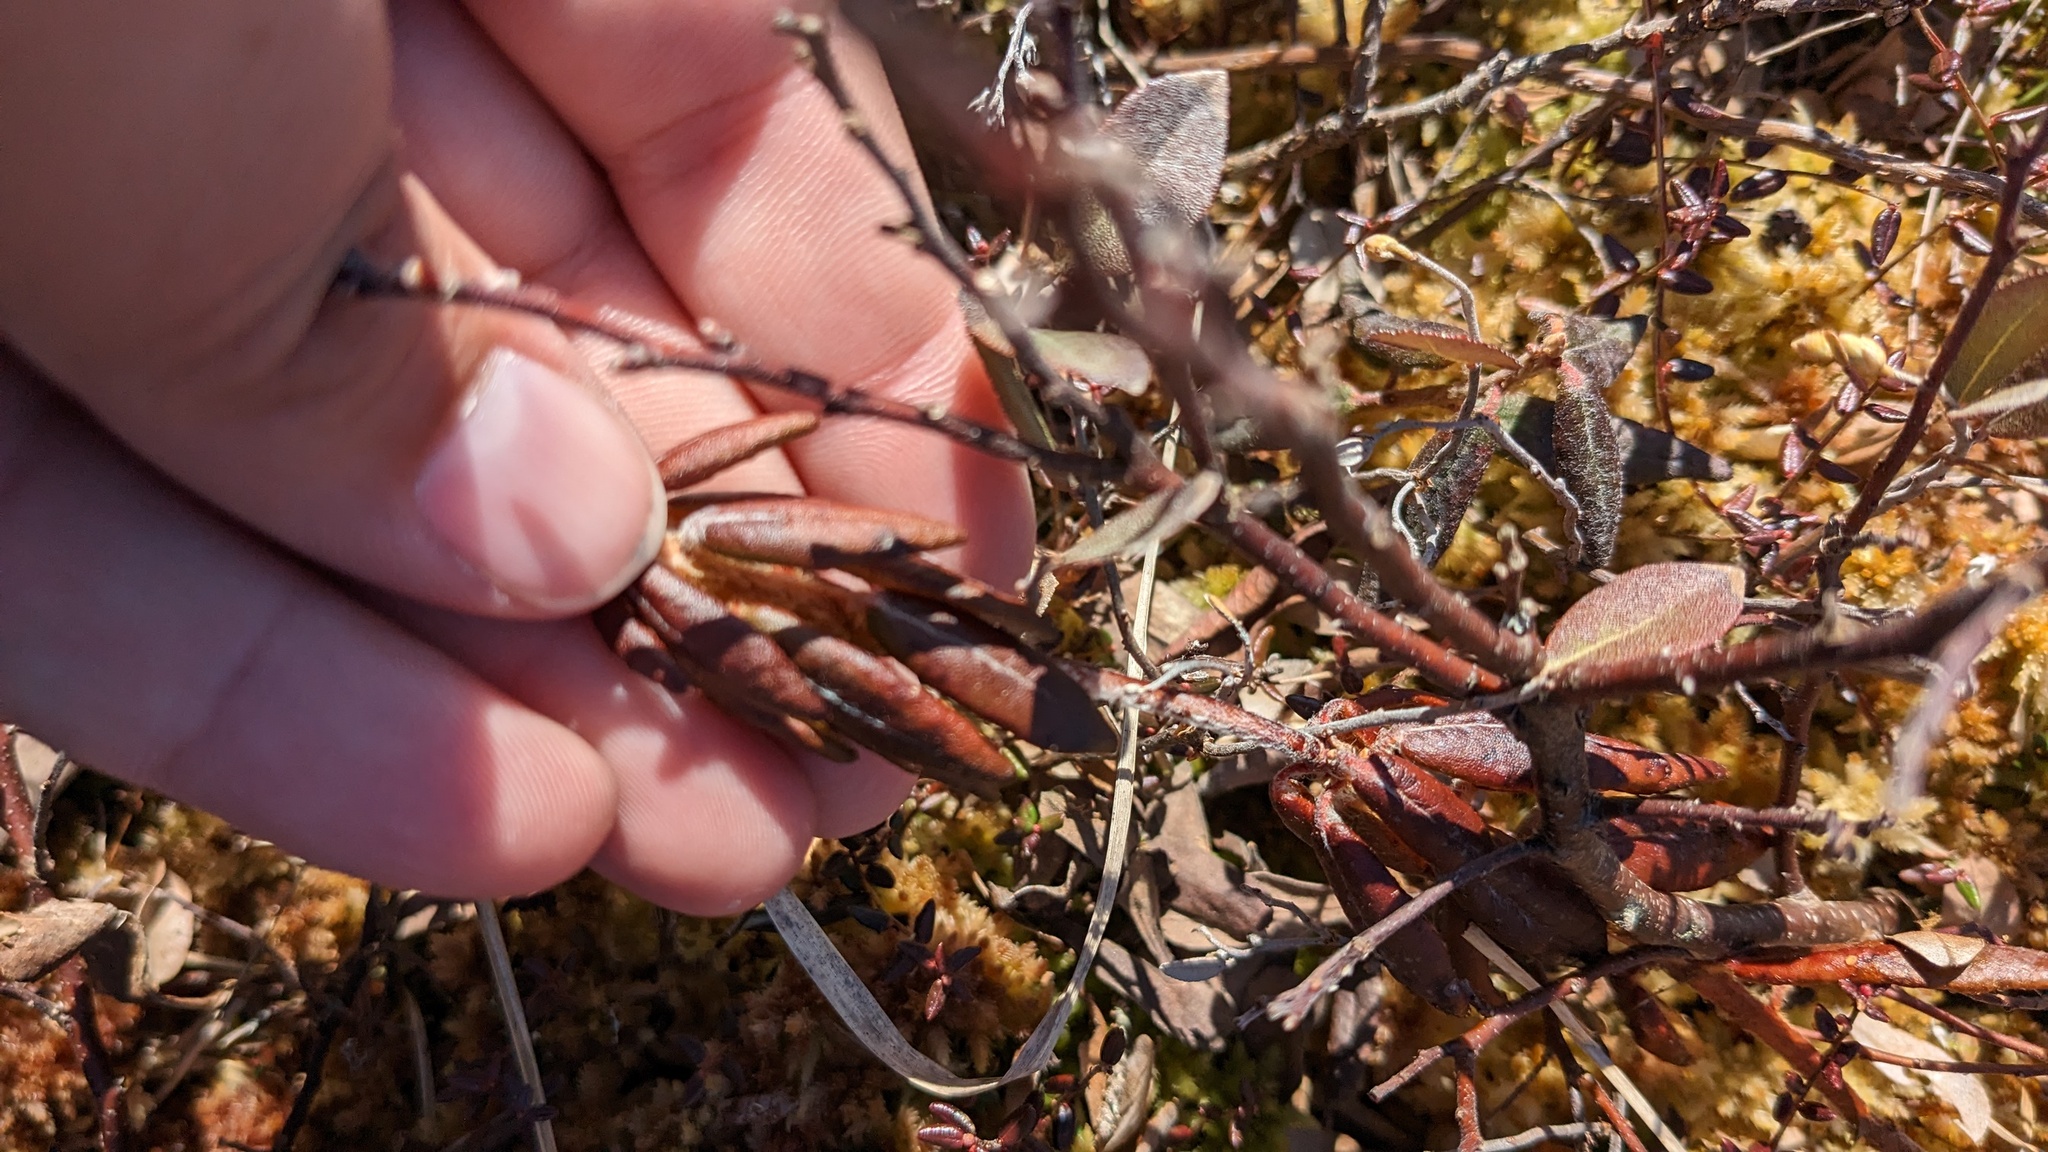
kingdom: Plantae
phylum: Tracheophyta
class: Magnoliopsida
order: Ericales
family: Ericaceae
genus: Rhododendron
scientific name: Rhododendron groenlandicum
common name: Bog labrador tea
